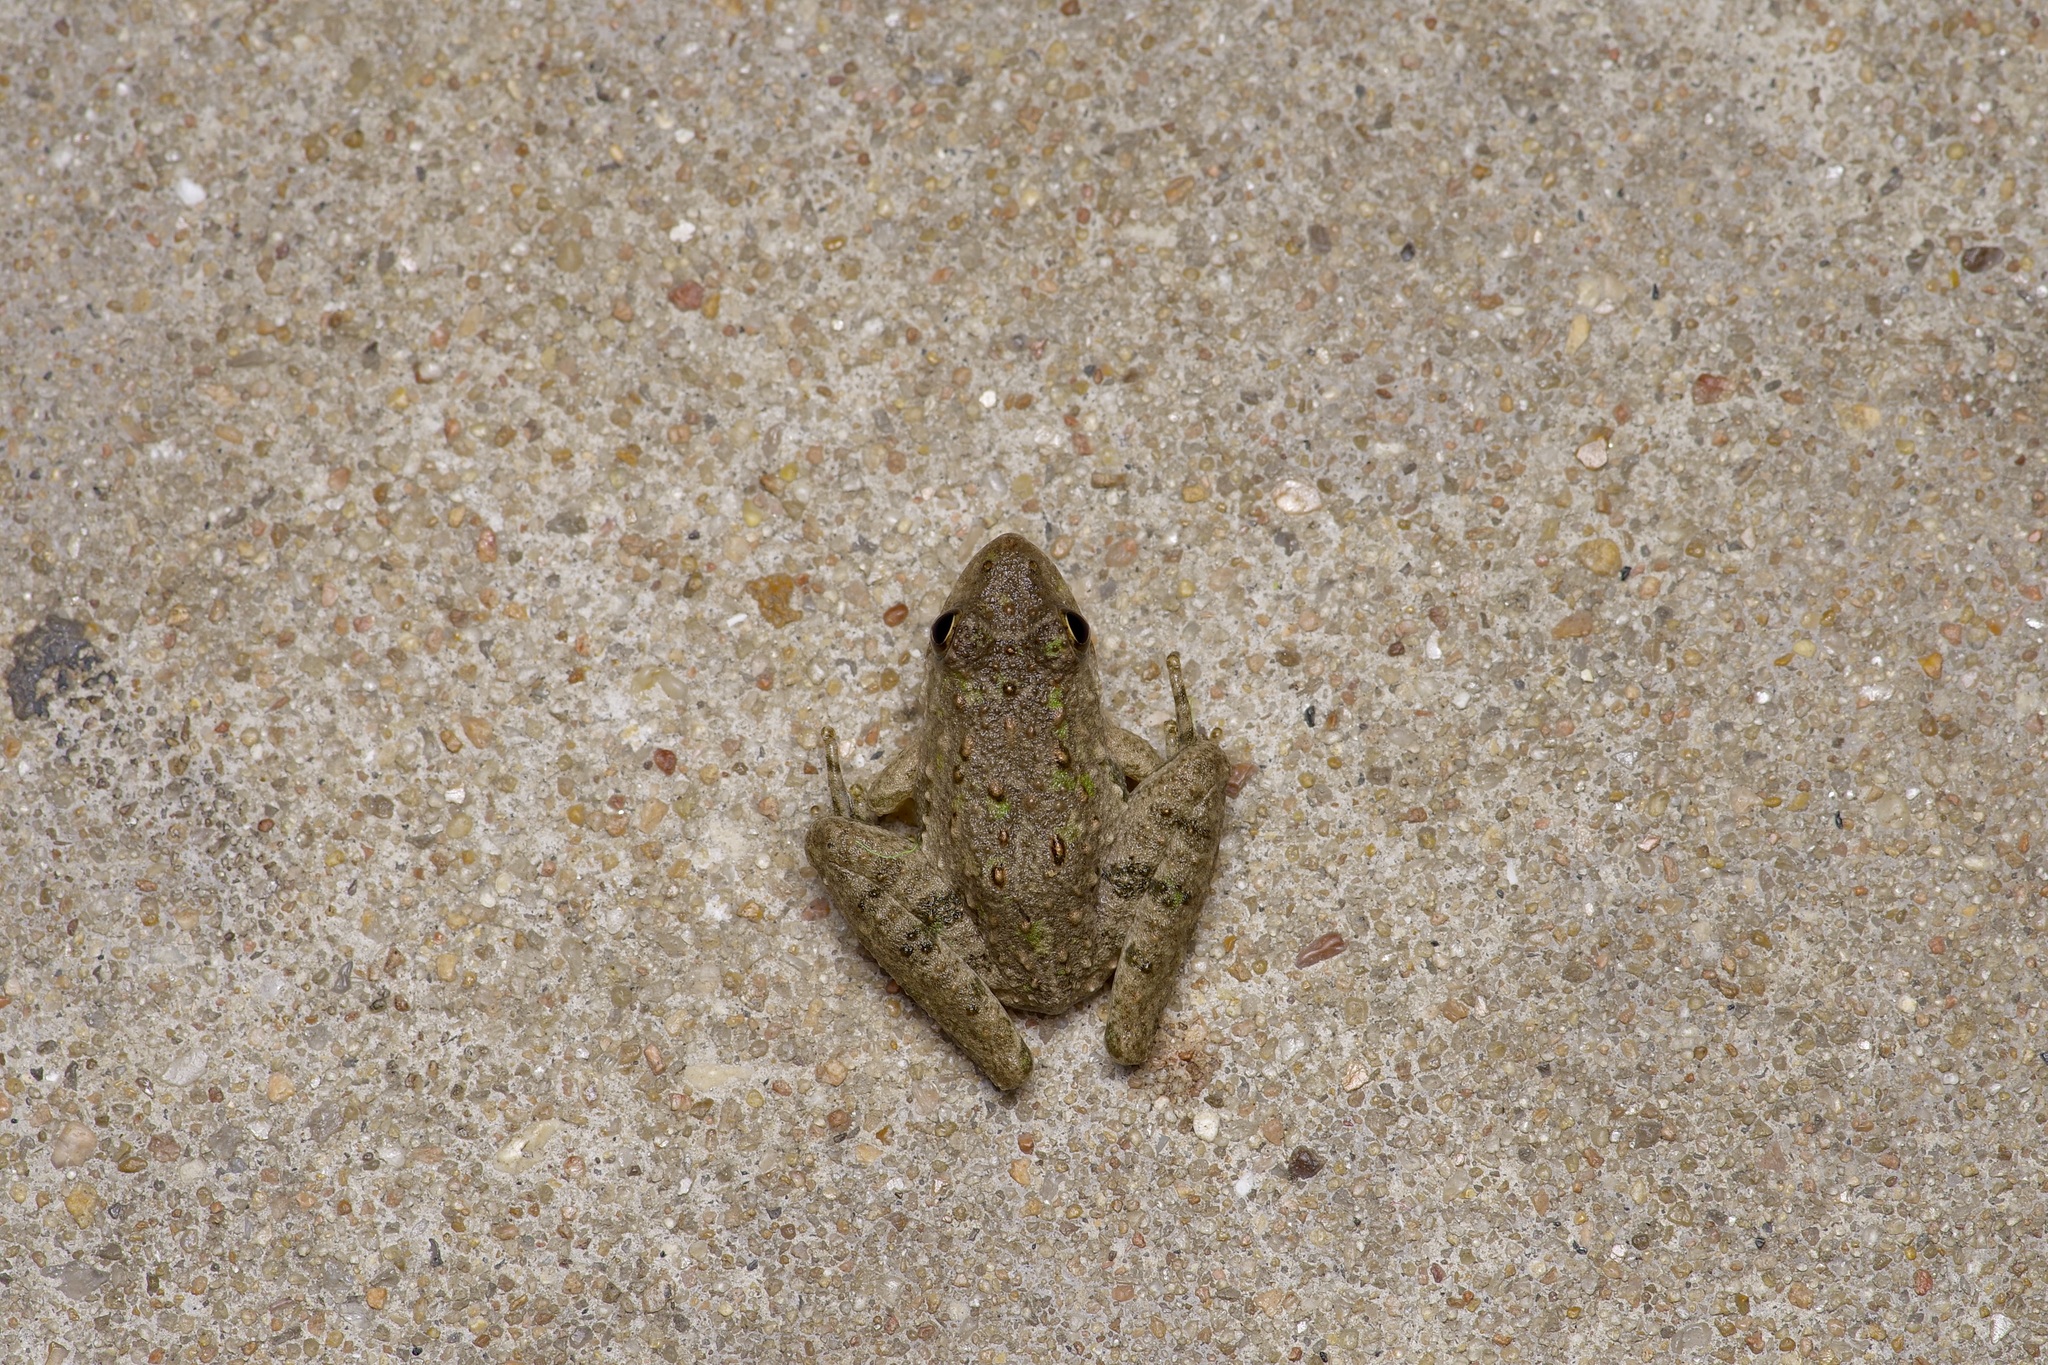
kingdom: Animalia
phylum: Chordata
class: Amphibia
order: Anura
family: Hylidae
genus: Acris
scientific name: Acris blanchardi
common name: Blanchard's cricket frog
